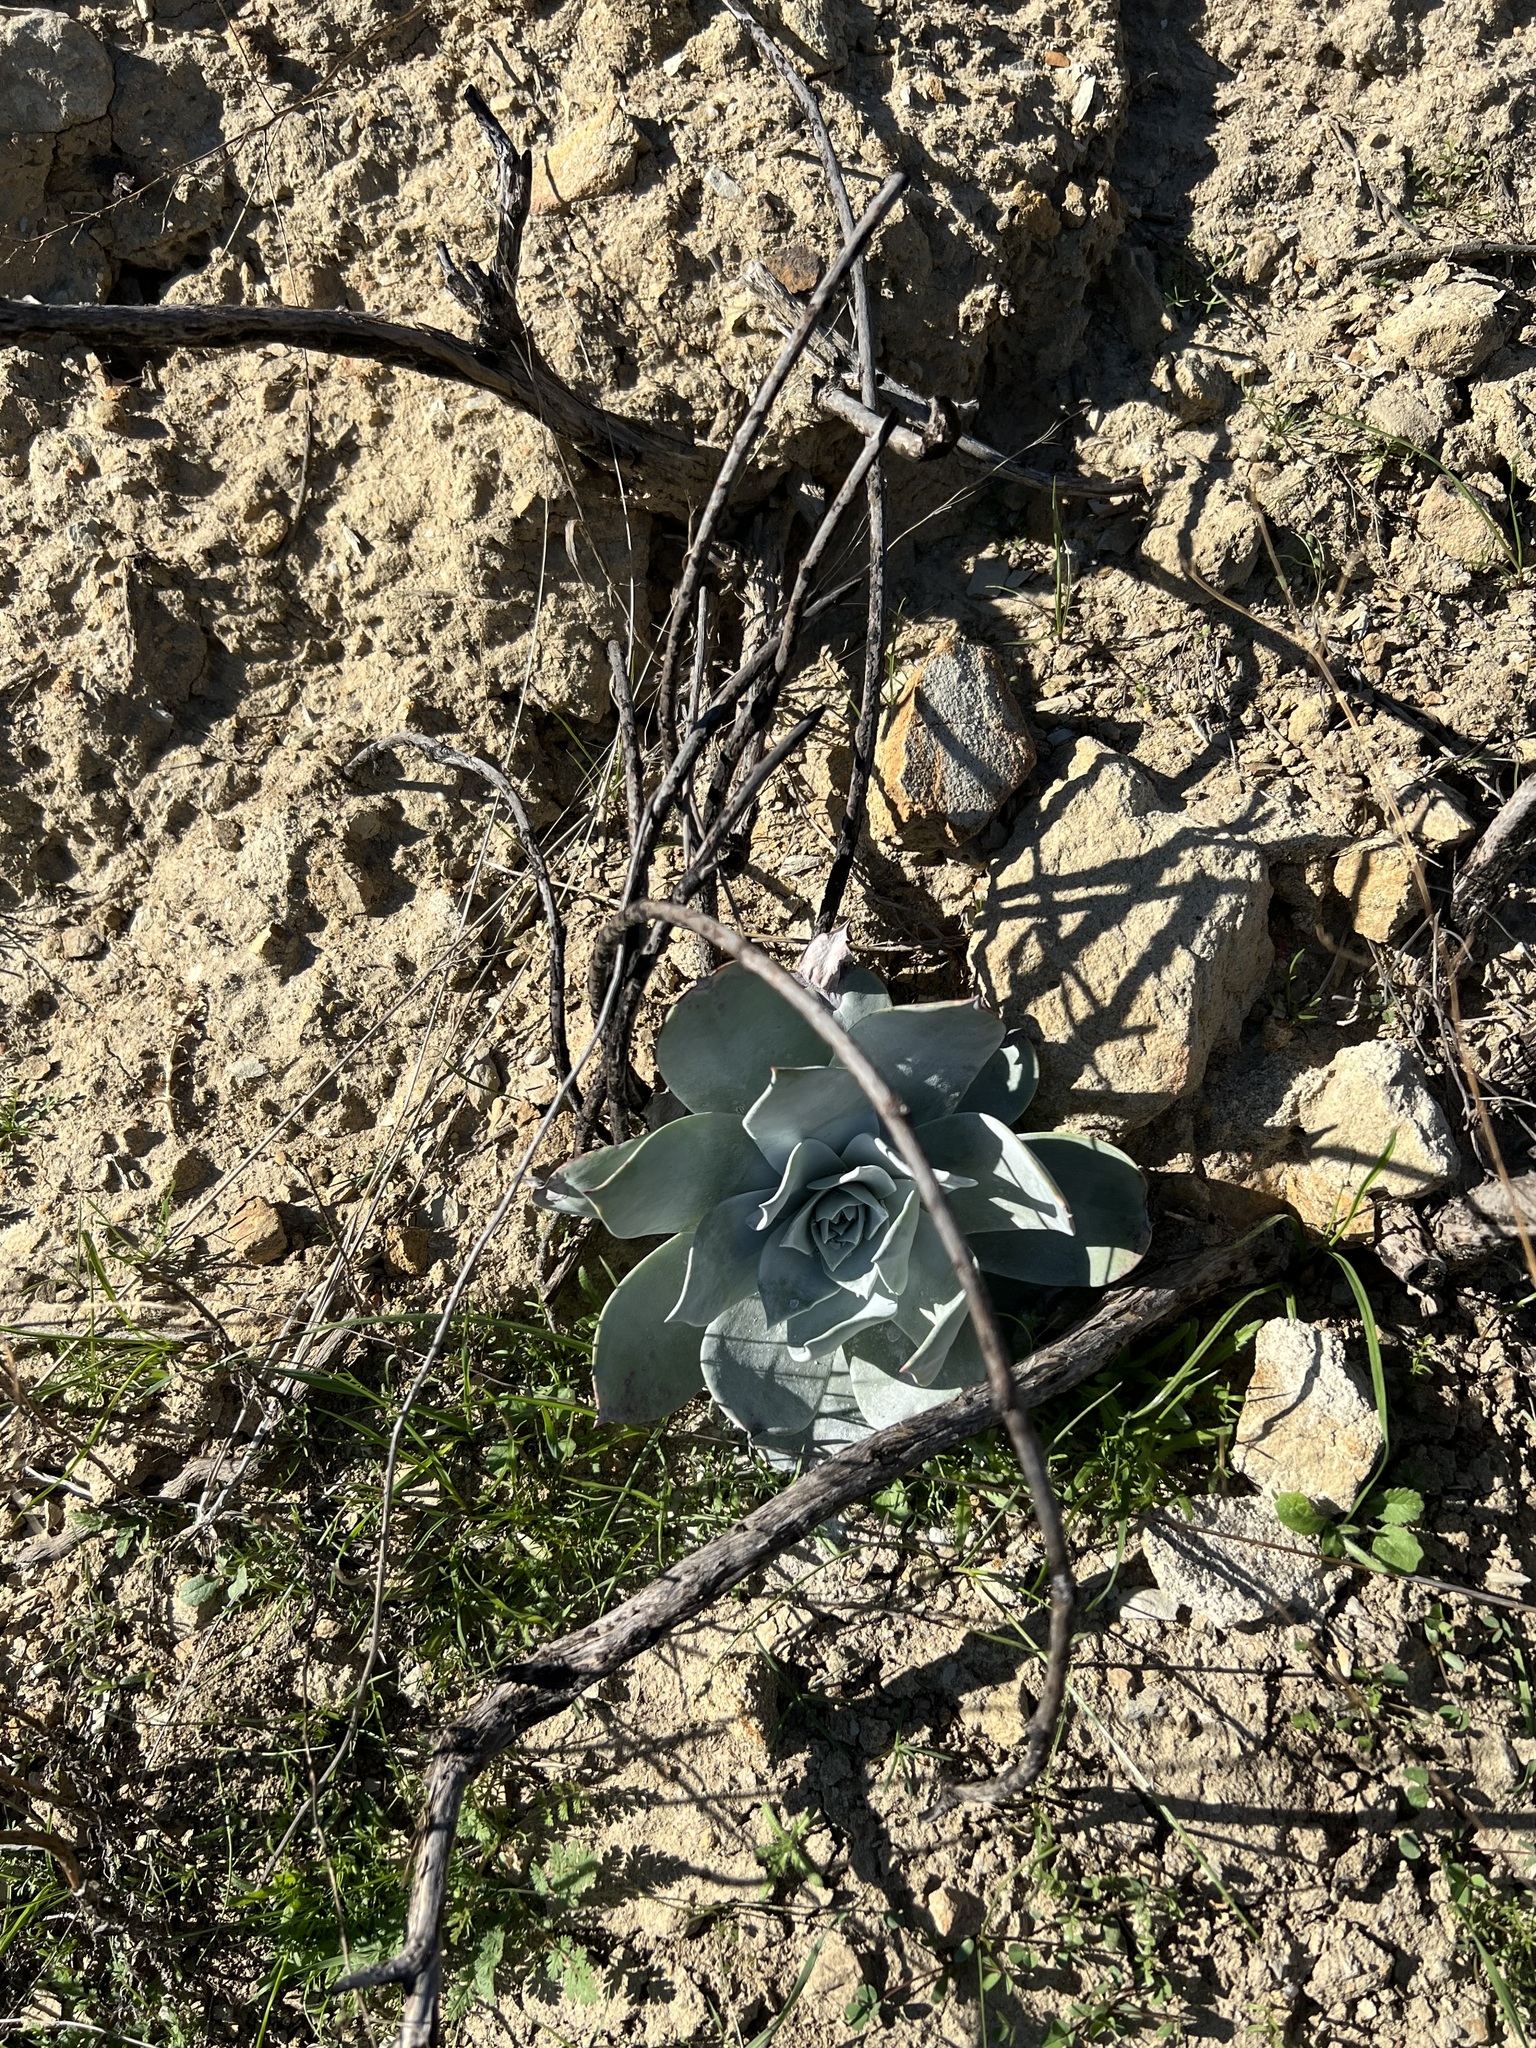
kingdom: Plantae
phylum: Tracheophyta
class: Magnoliopsida
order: Saxifragales
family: Crassulaceae
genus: Dudleya
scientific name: Dudleya pulverulenta
